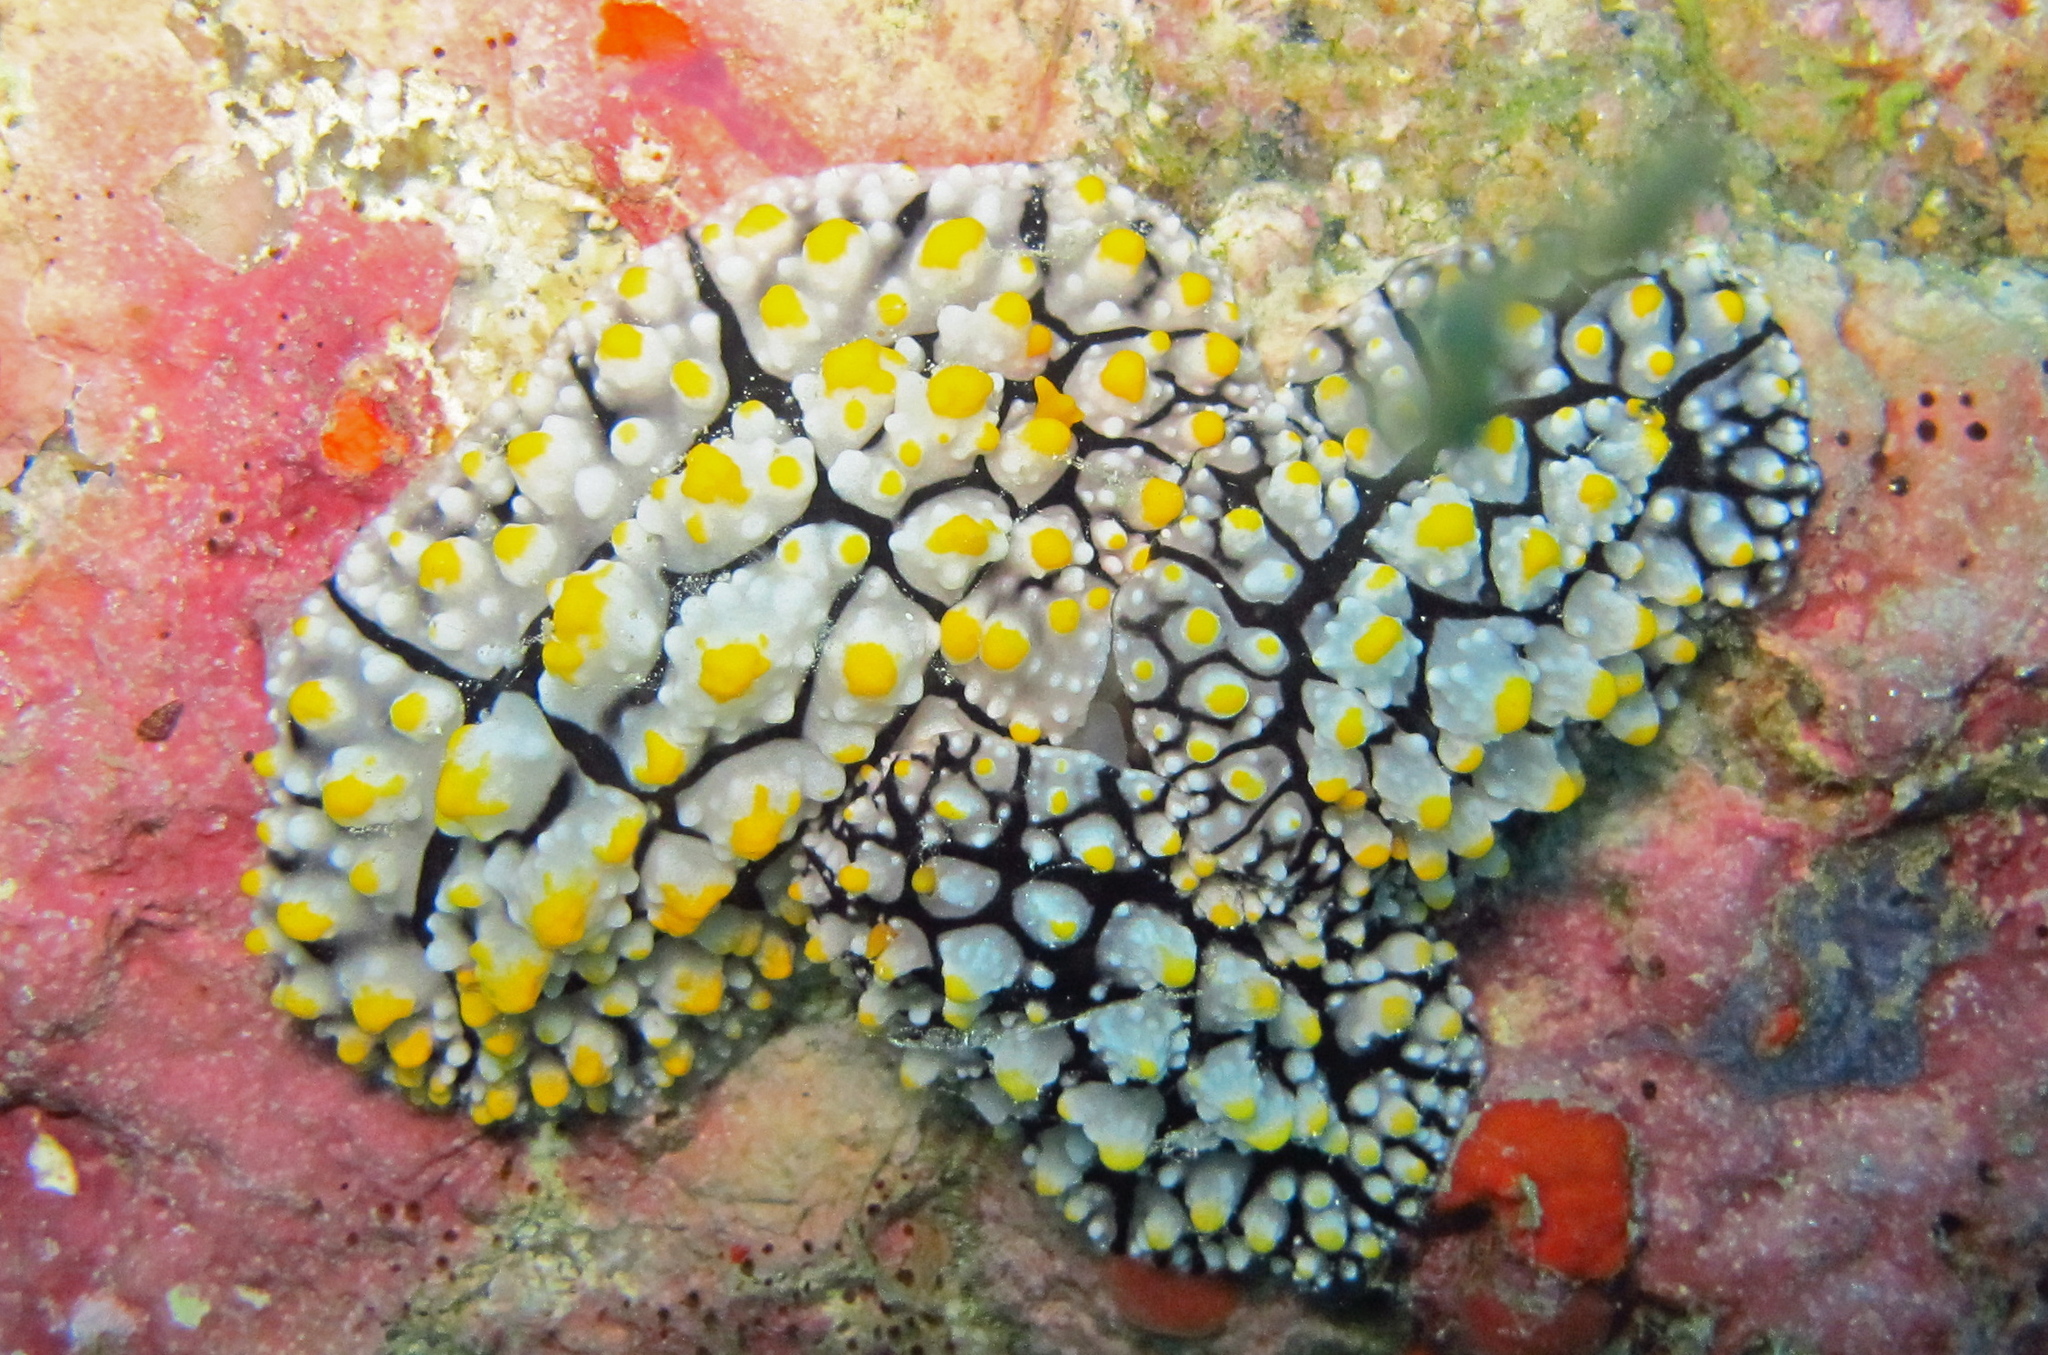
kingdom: Animalia
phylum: Mollusca
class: Gastropoda
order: Nudibranchia
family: Phyllidiidae
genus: Phyllidia
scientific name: Phyllidia elegans
